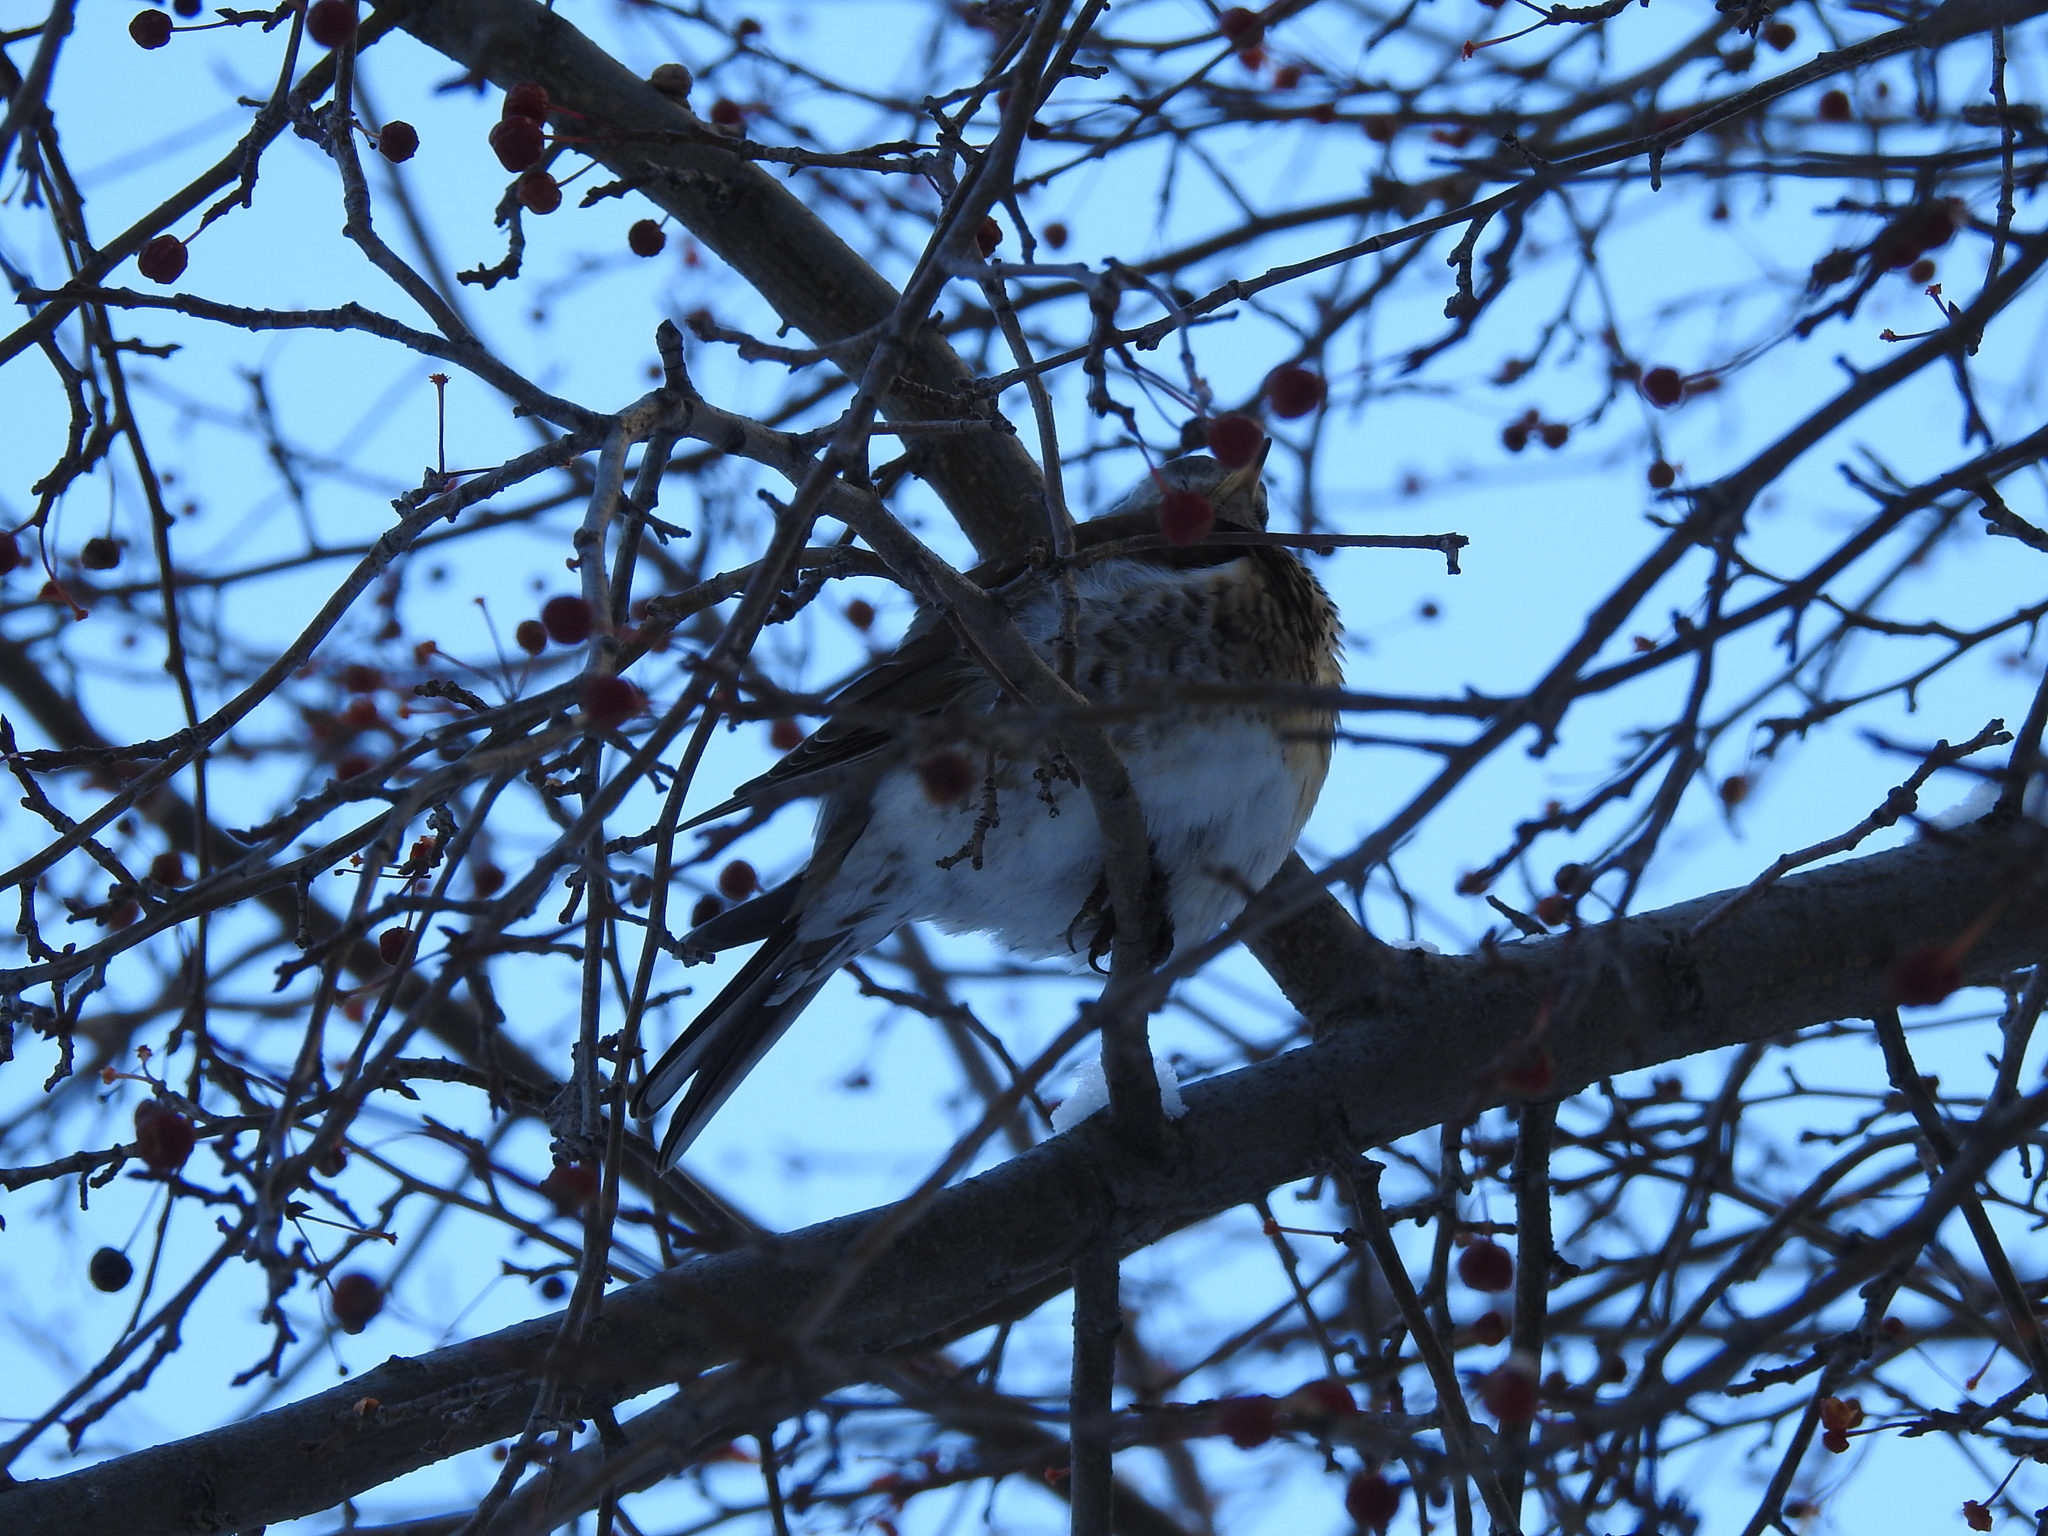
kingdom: Animalia
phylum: Chordata
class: Aves
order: Passeriformes
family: Turdidae
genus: Turdus
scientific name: Turdus pilaris
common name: Fieldfare
